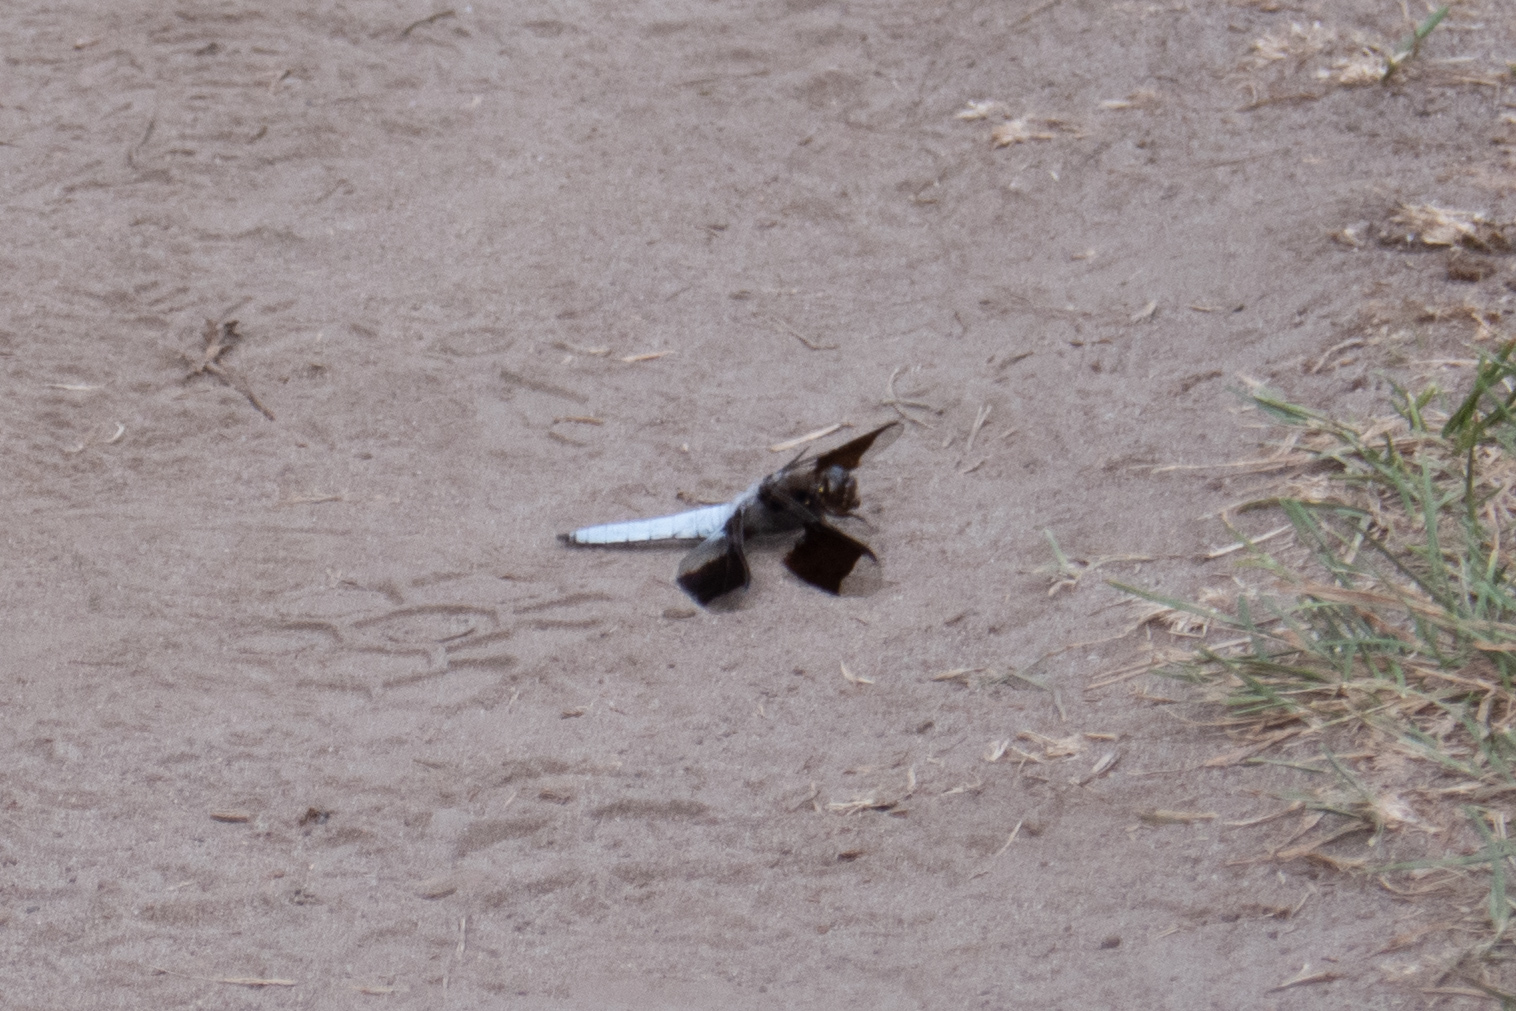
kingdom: Animalia
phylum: Arthropoda
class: Insecta
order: Odonata
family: Libellulidae
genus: Plathemis
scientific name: Plathemis lydia
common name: Common whitetail
